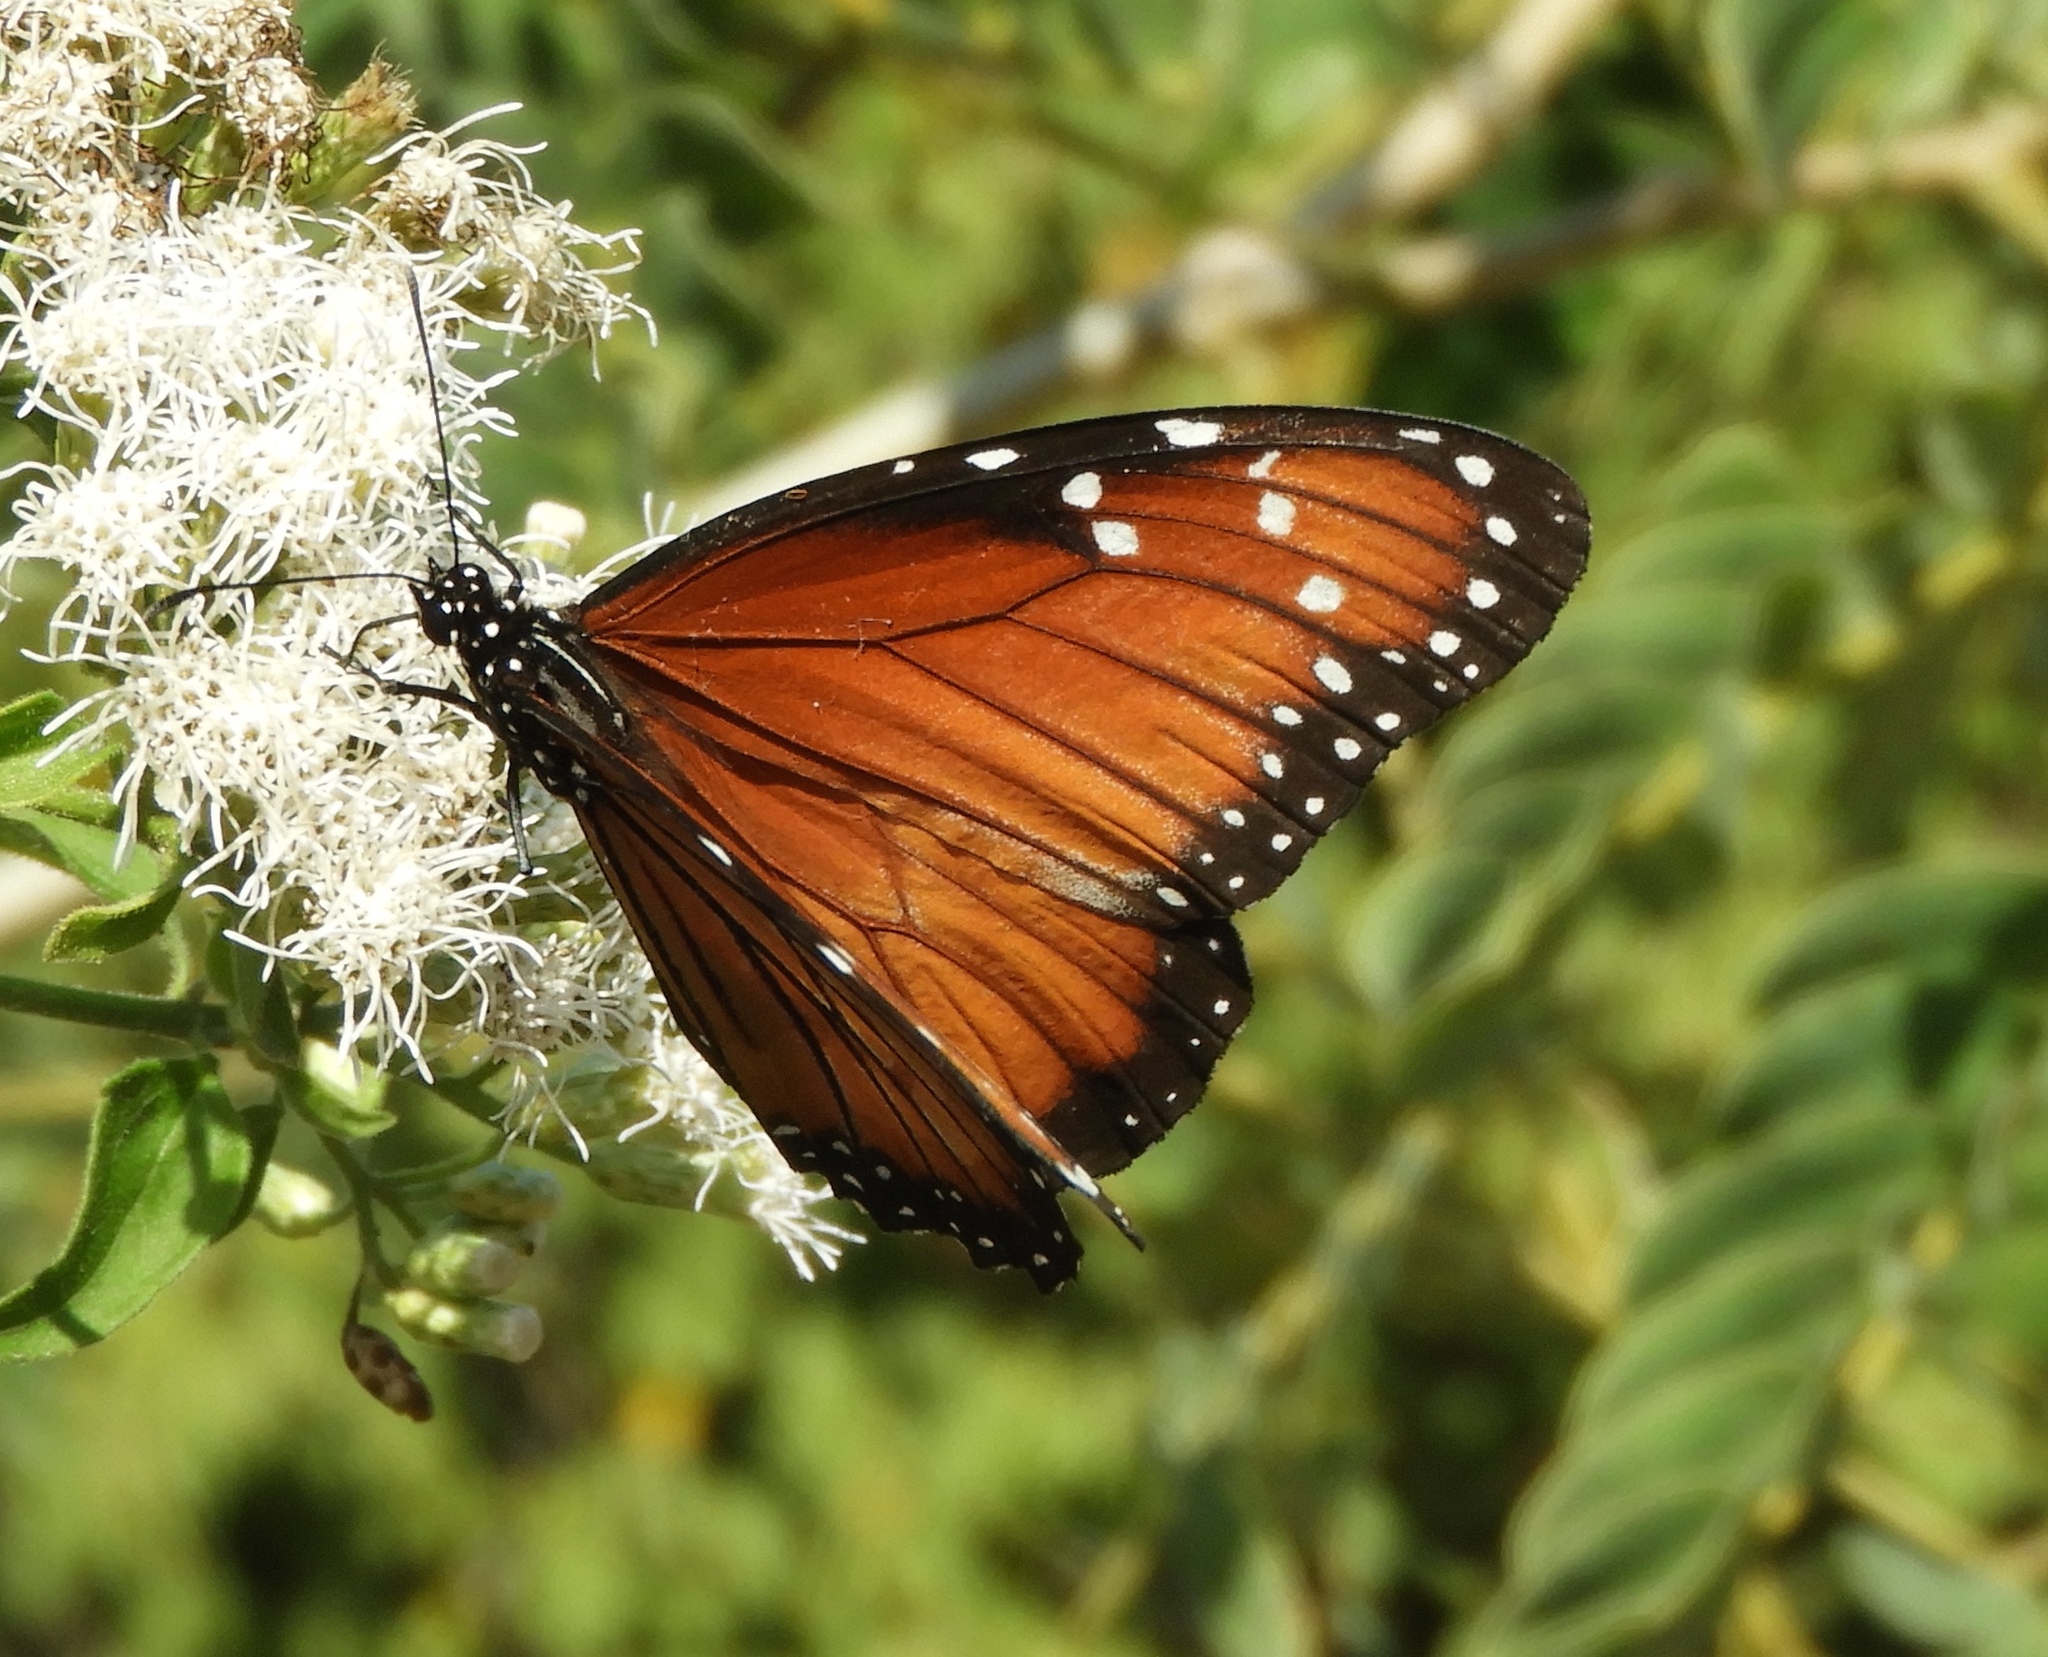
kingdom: Animalia
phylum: Arthropoda
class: Insecta
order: Lepidoptera
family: Nymphalidae
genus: Danaus
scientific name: Danaus eresimus
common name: Soldier
